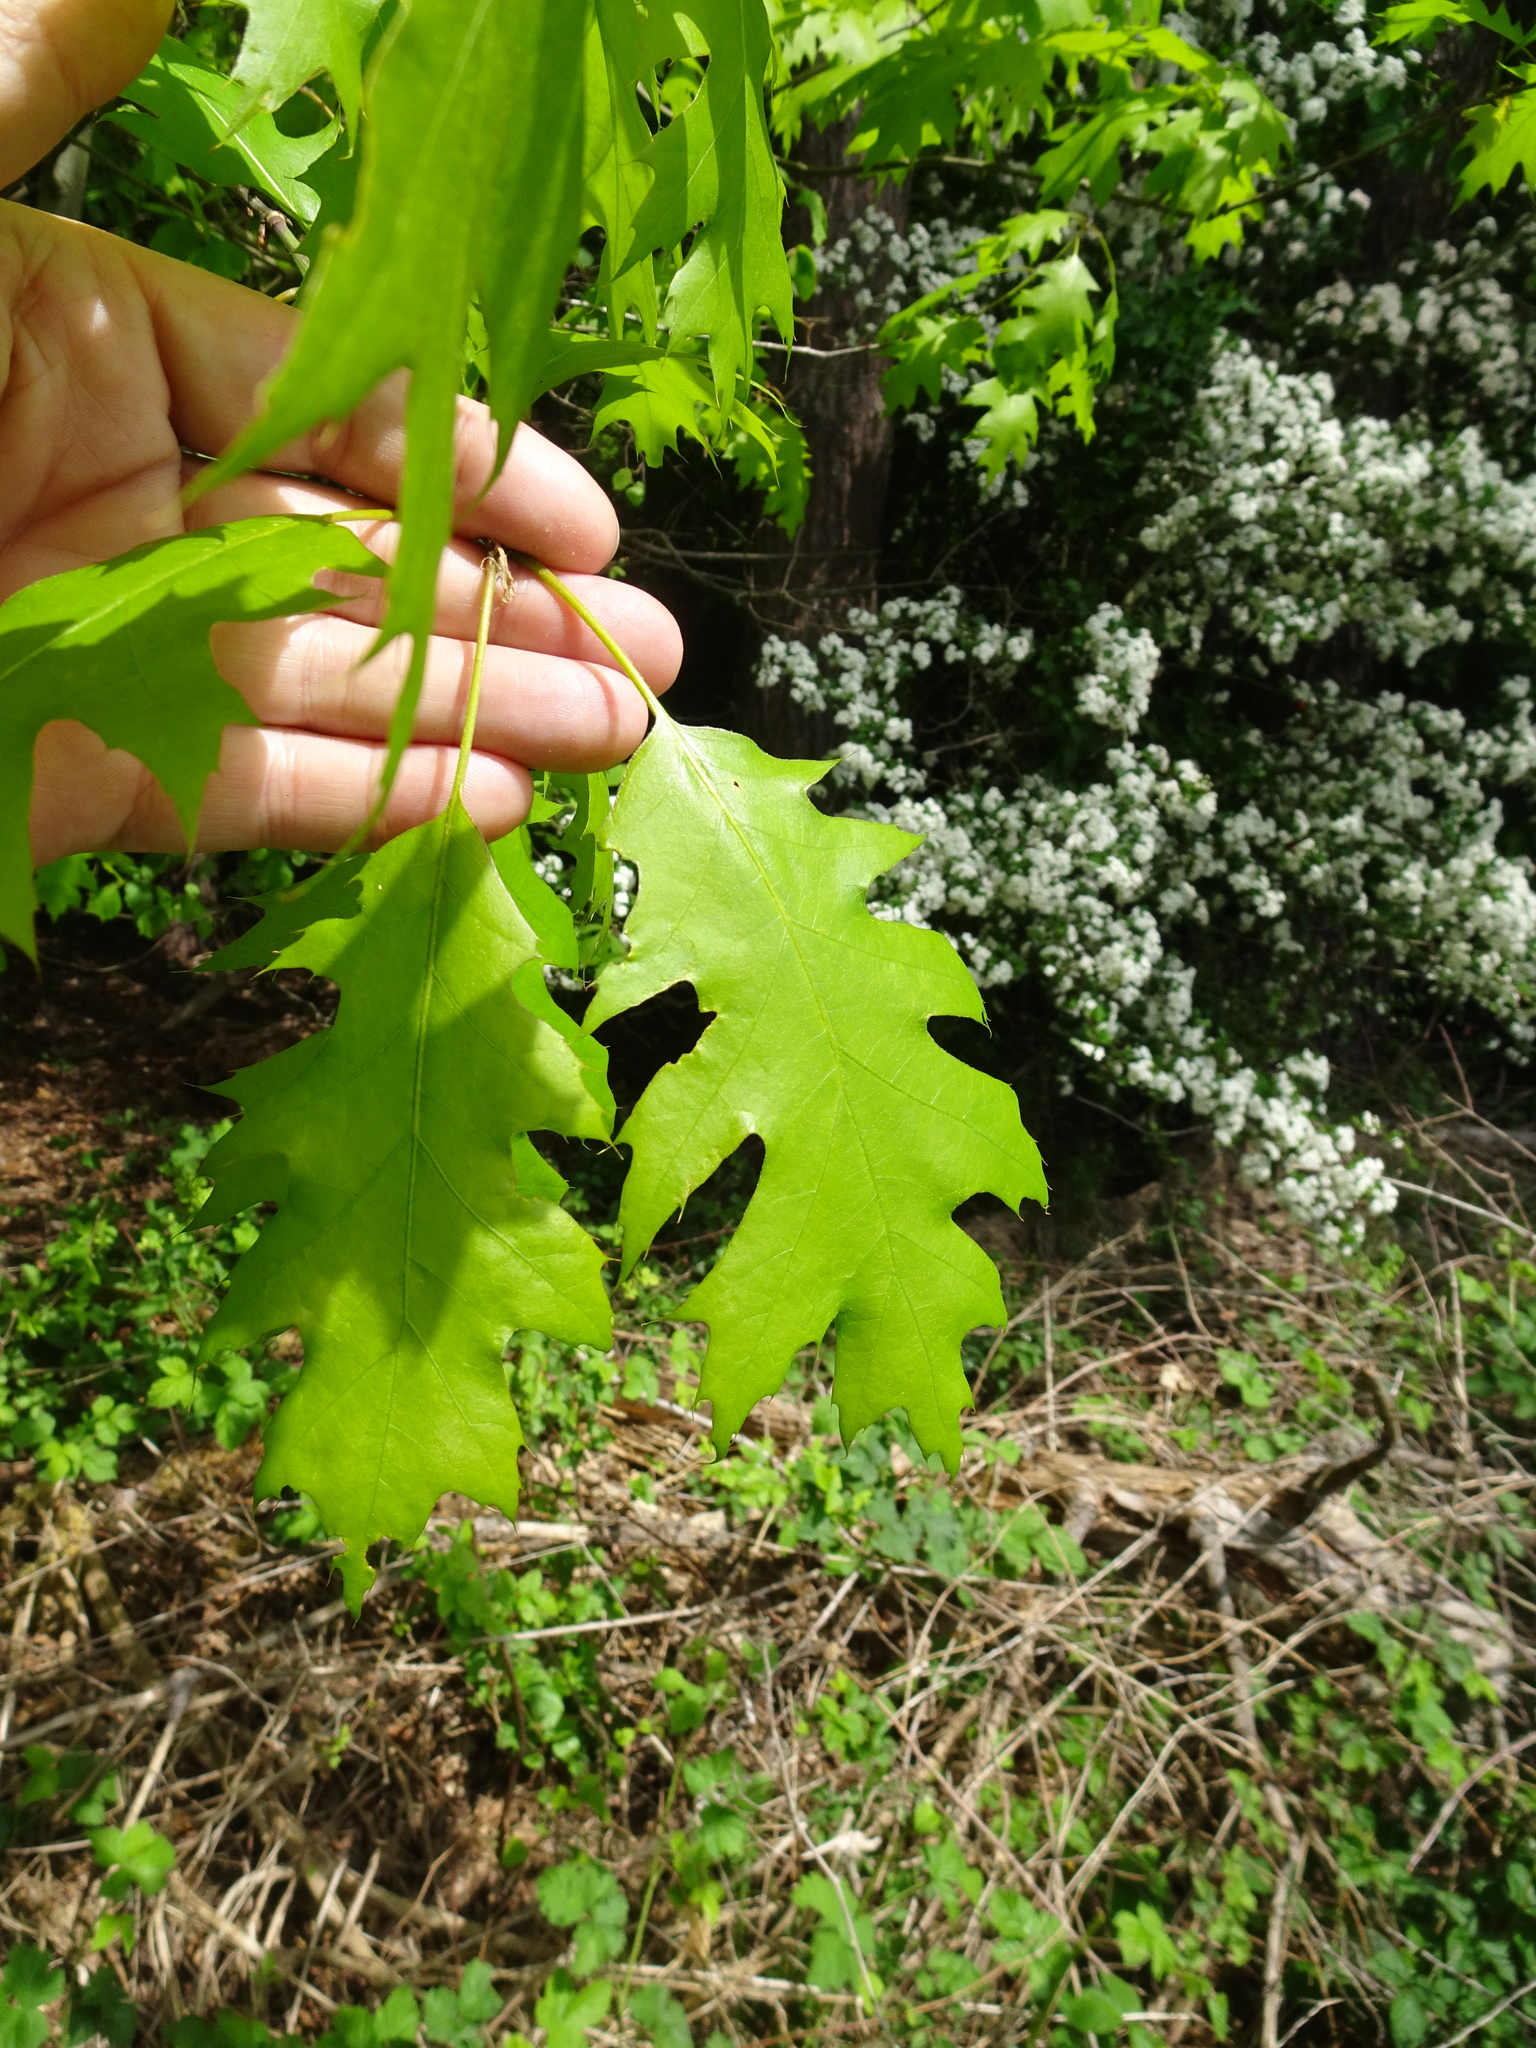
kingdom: Plantae
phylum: Tracheophyta
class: Magnoliopsida
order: Fagales
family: Fagaceae
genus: Quercus
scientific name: Quercus rubra
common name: Red oak
